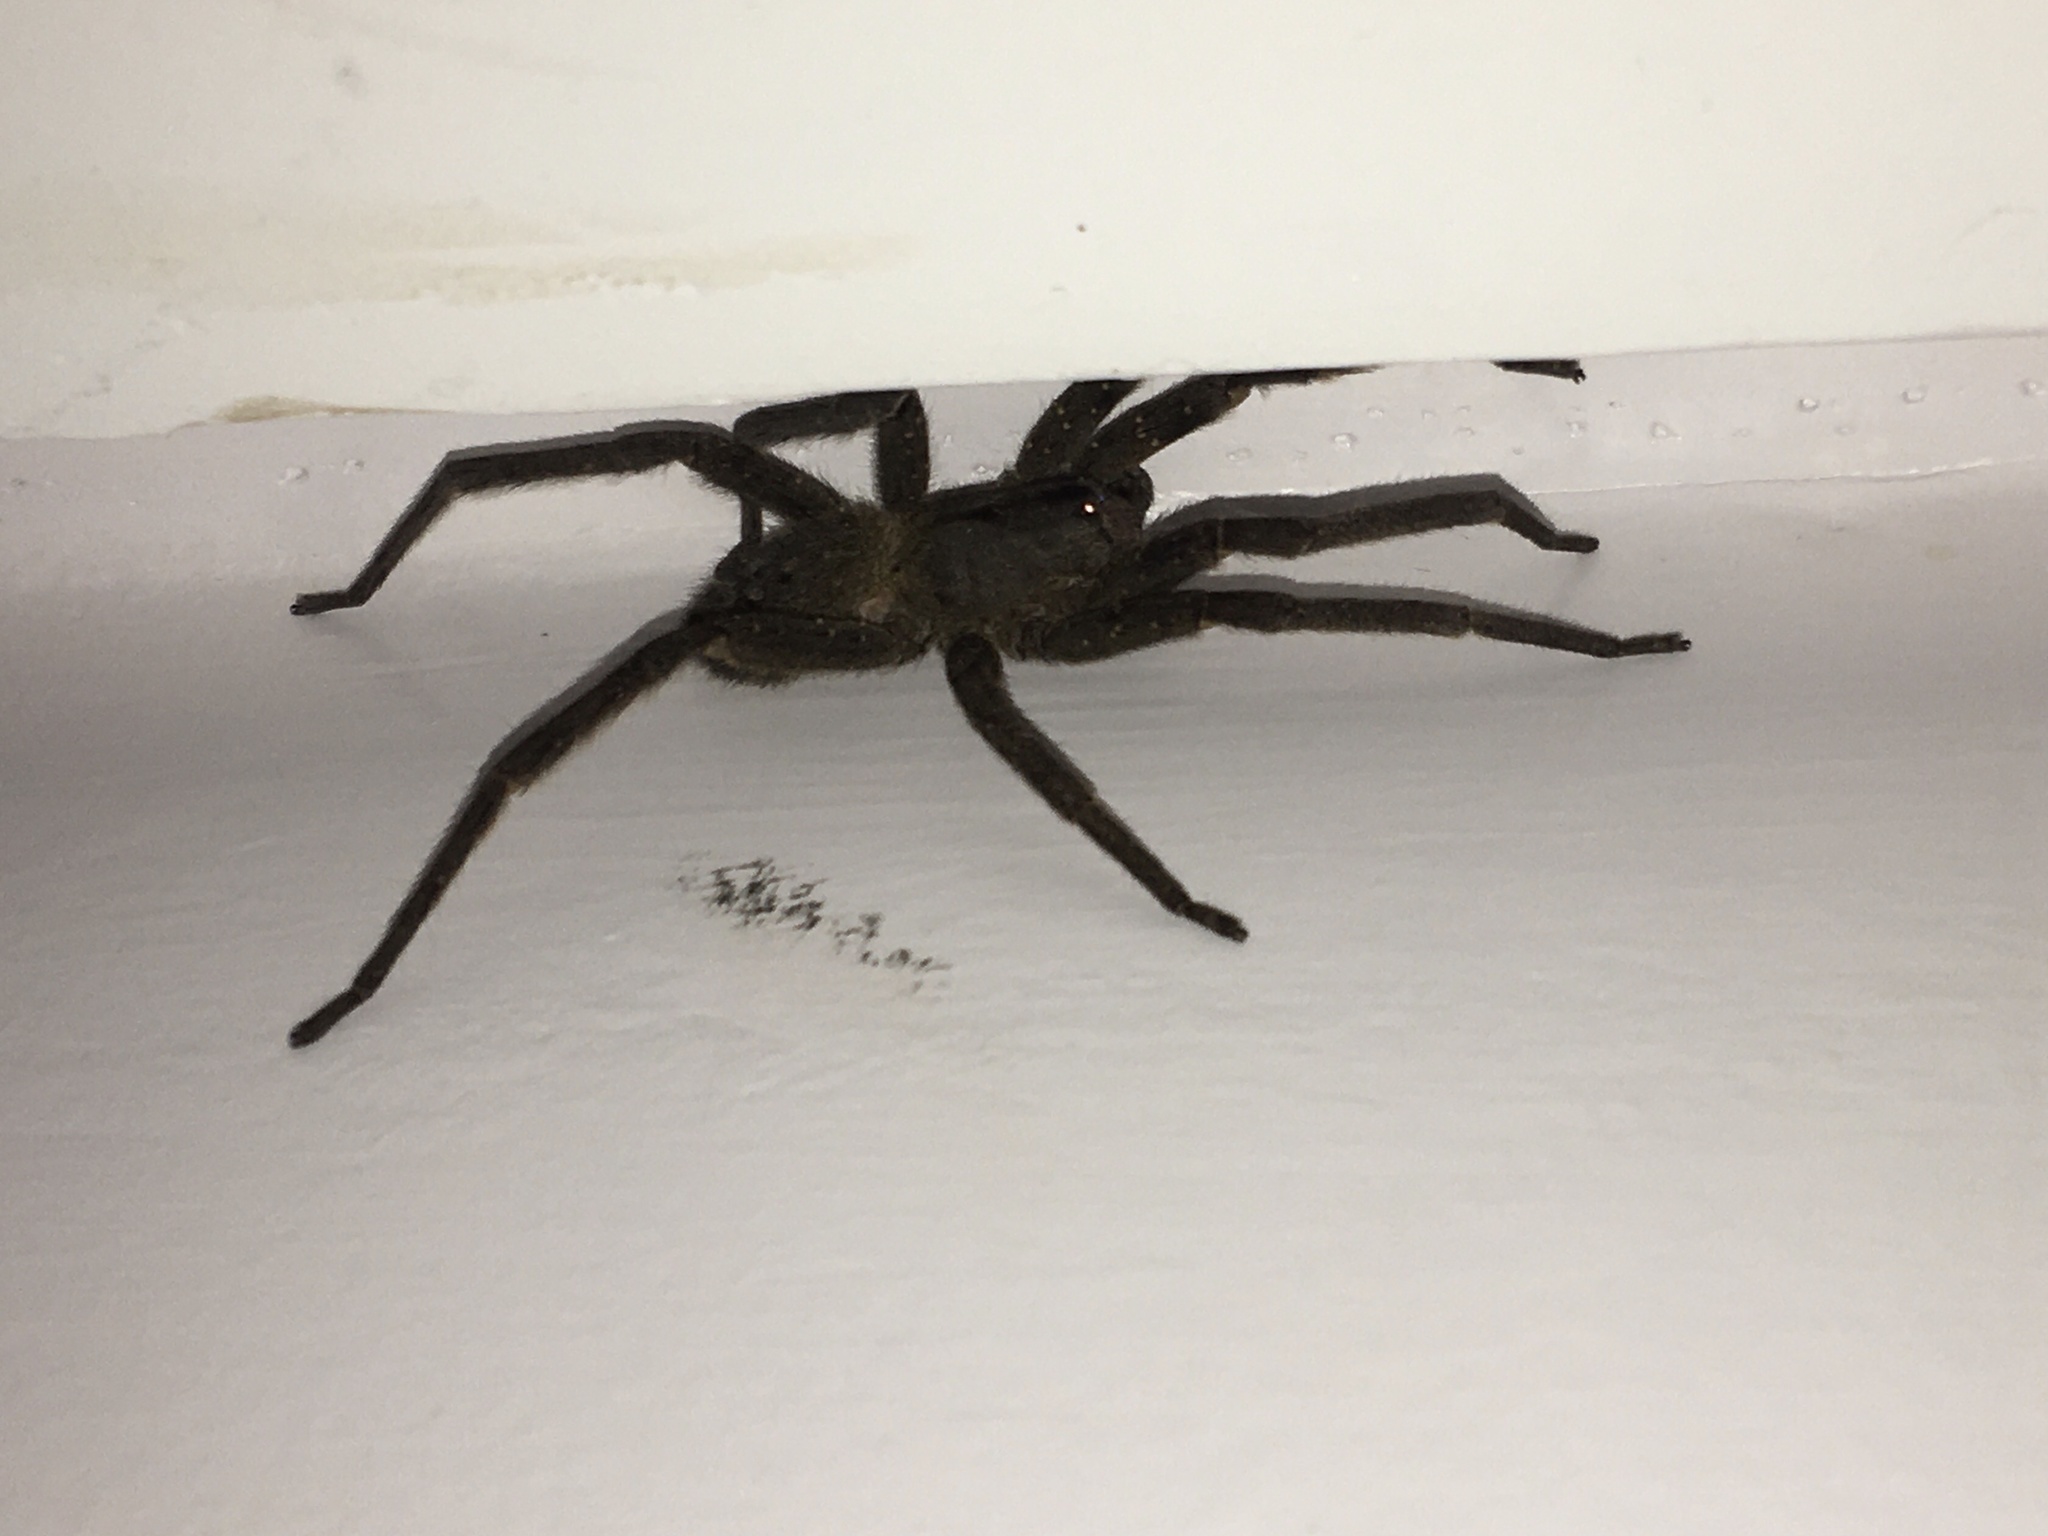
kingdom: Animalia
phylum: Arthropoda
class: Arachnida
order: Araneae
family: Ctenidae
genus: Phoneutria
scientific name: Phoneutria nigriventer
